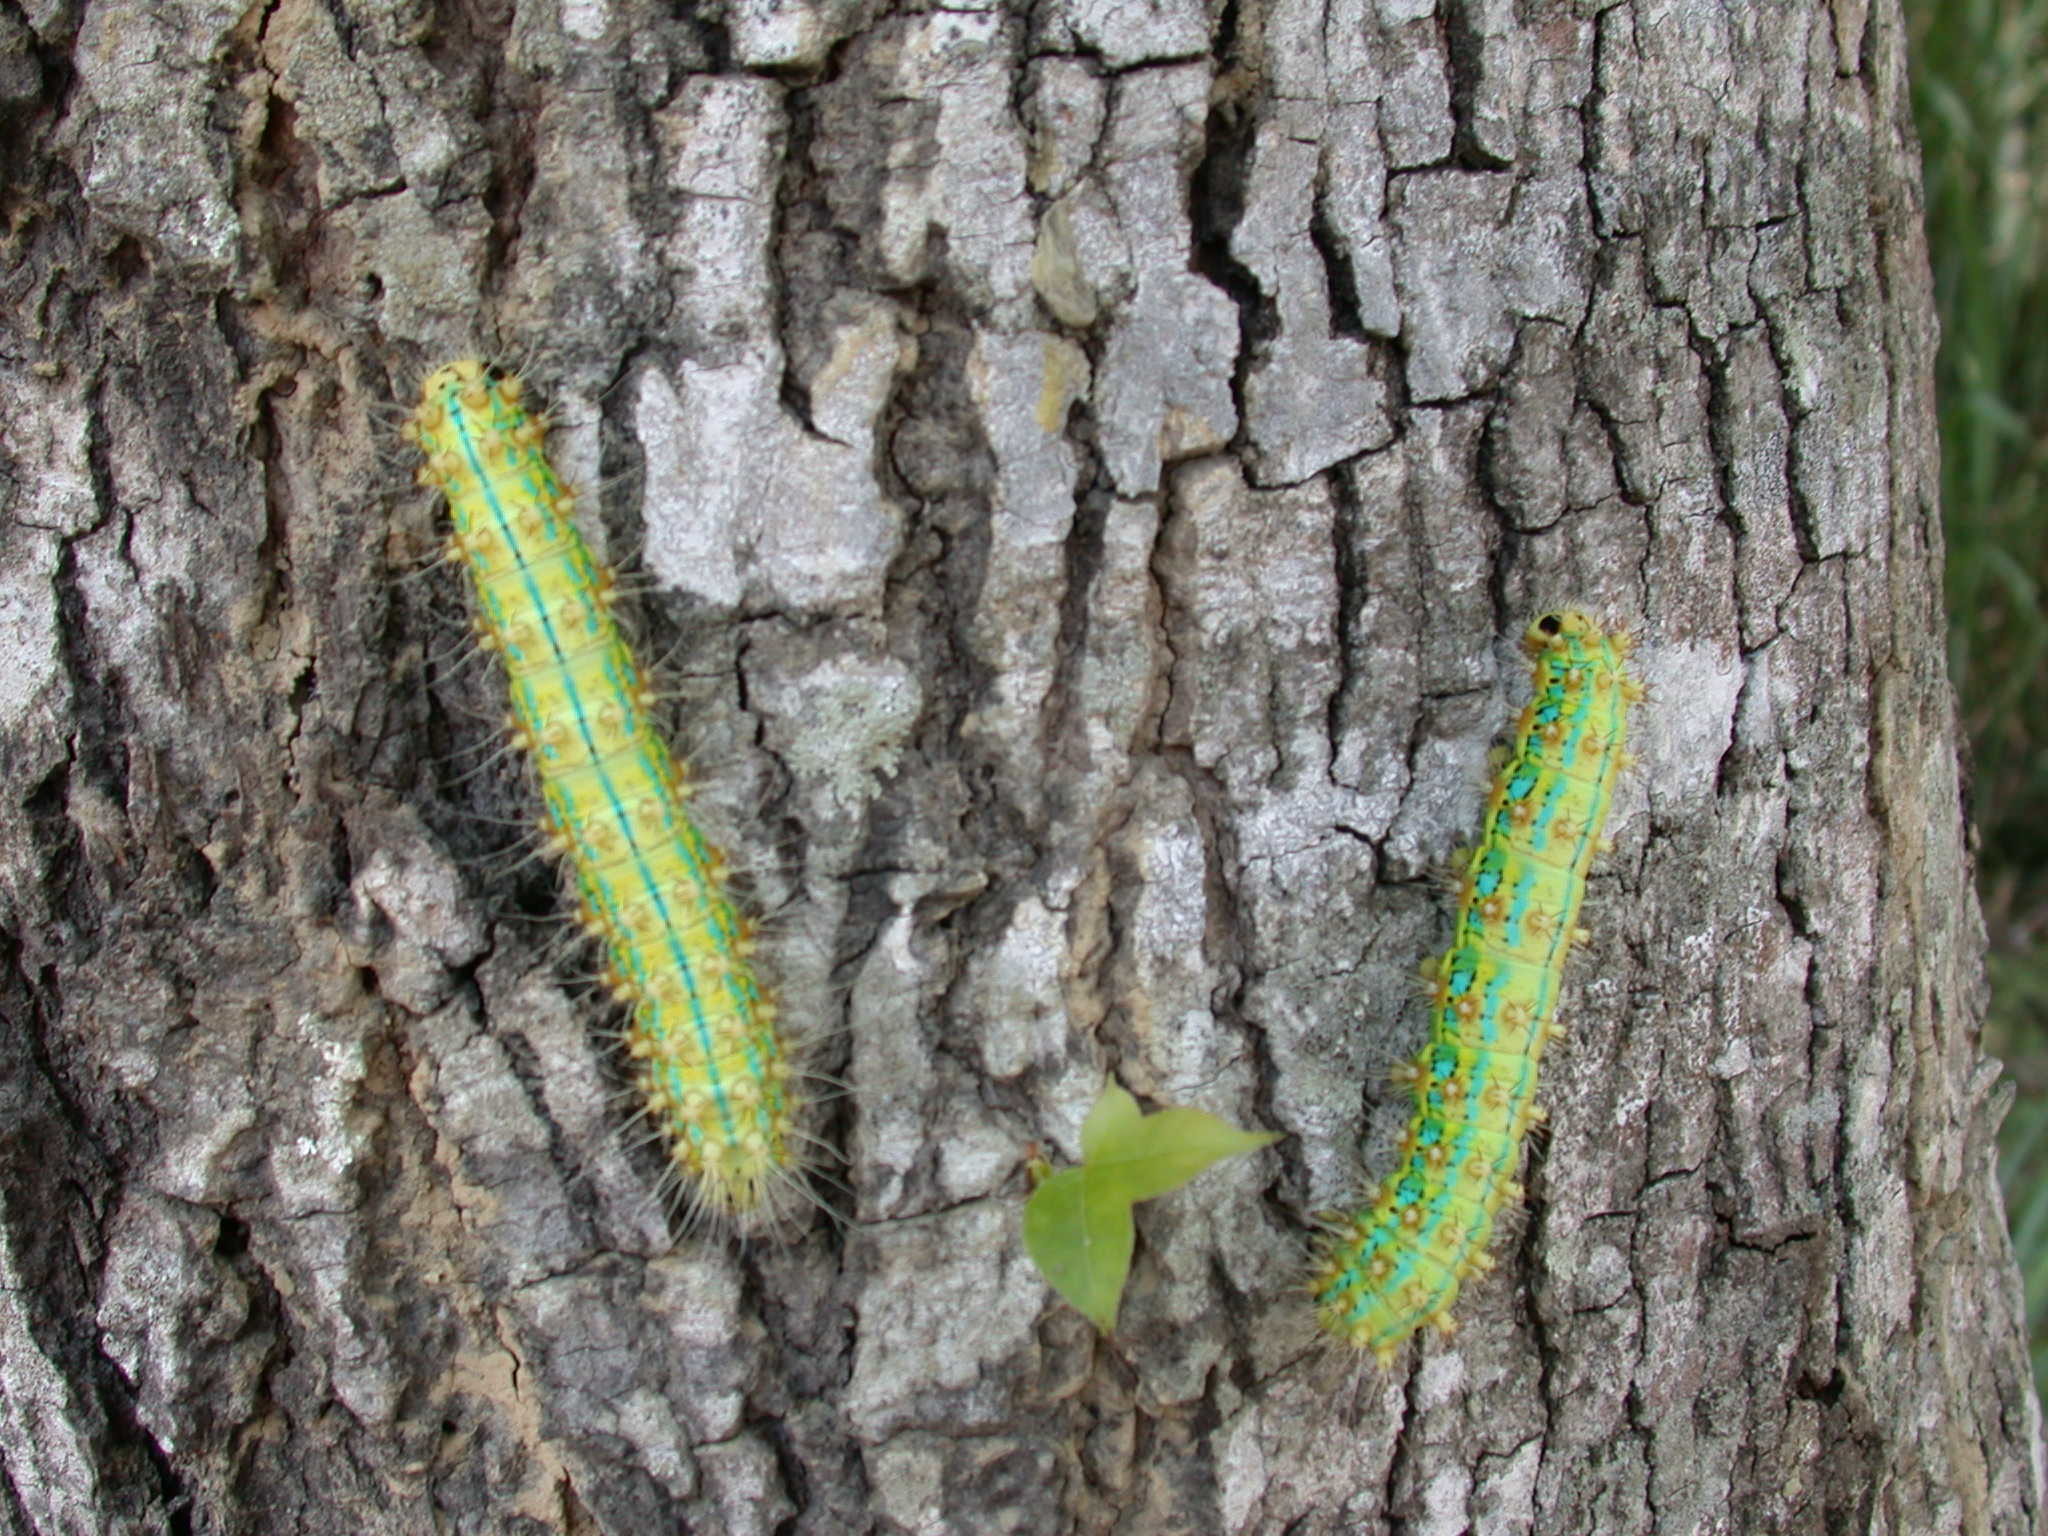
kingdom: Animalia
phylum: Arthropoda
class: Insecta
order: Lepidoptera
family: Saturniidae
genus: Saturnia
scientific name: Saturnia pyretorum
